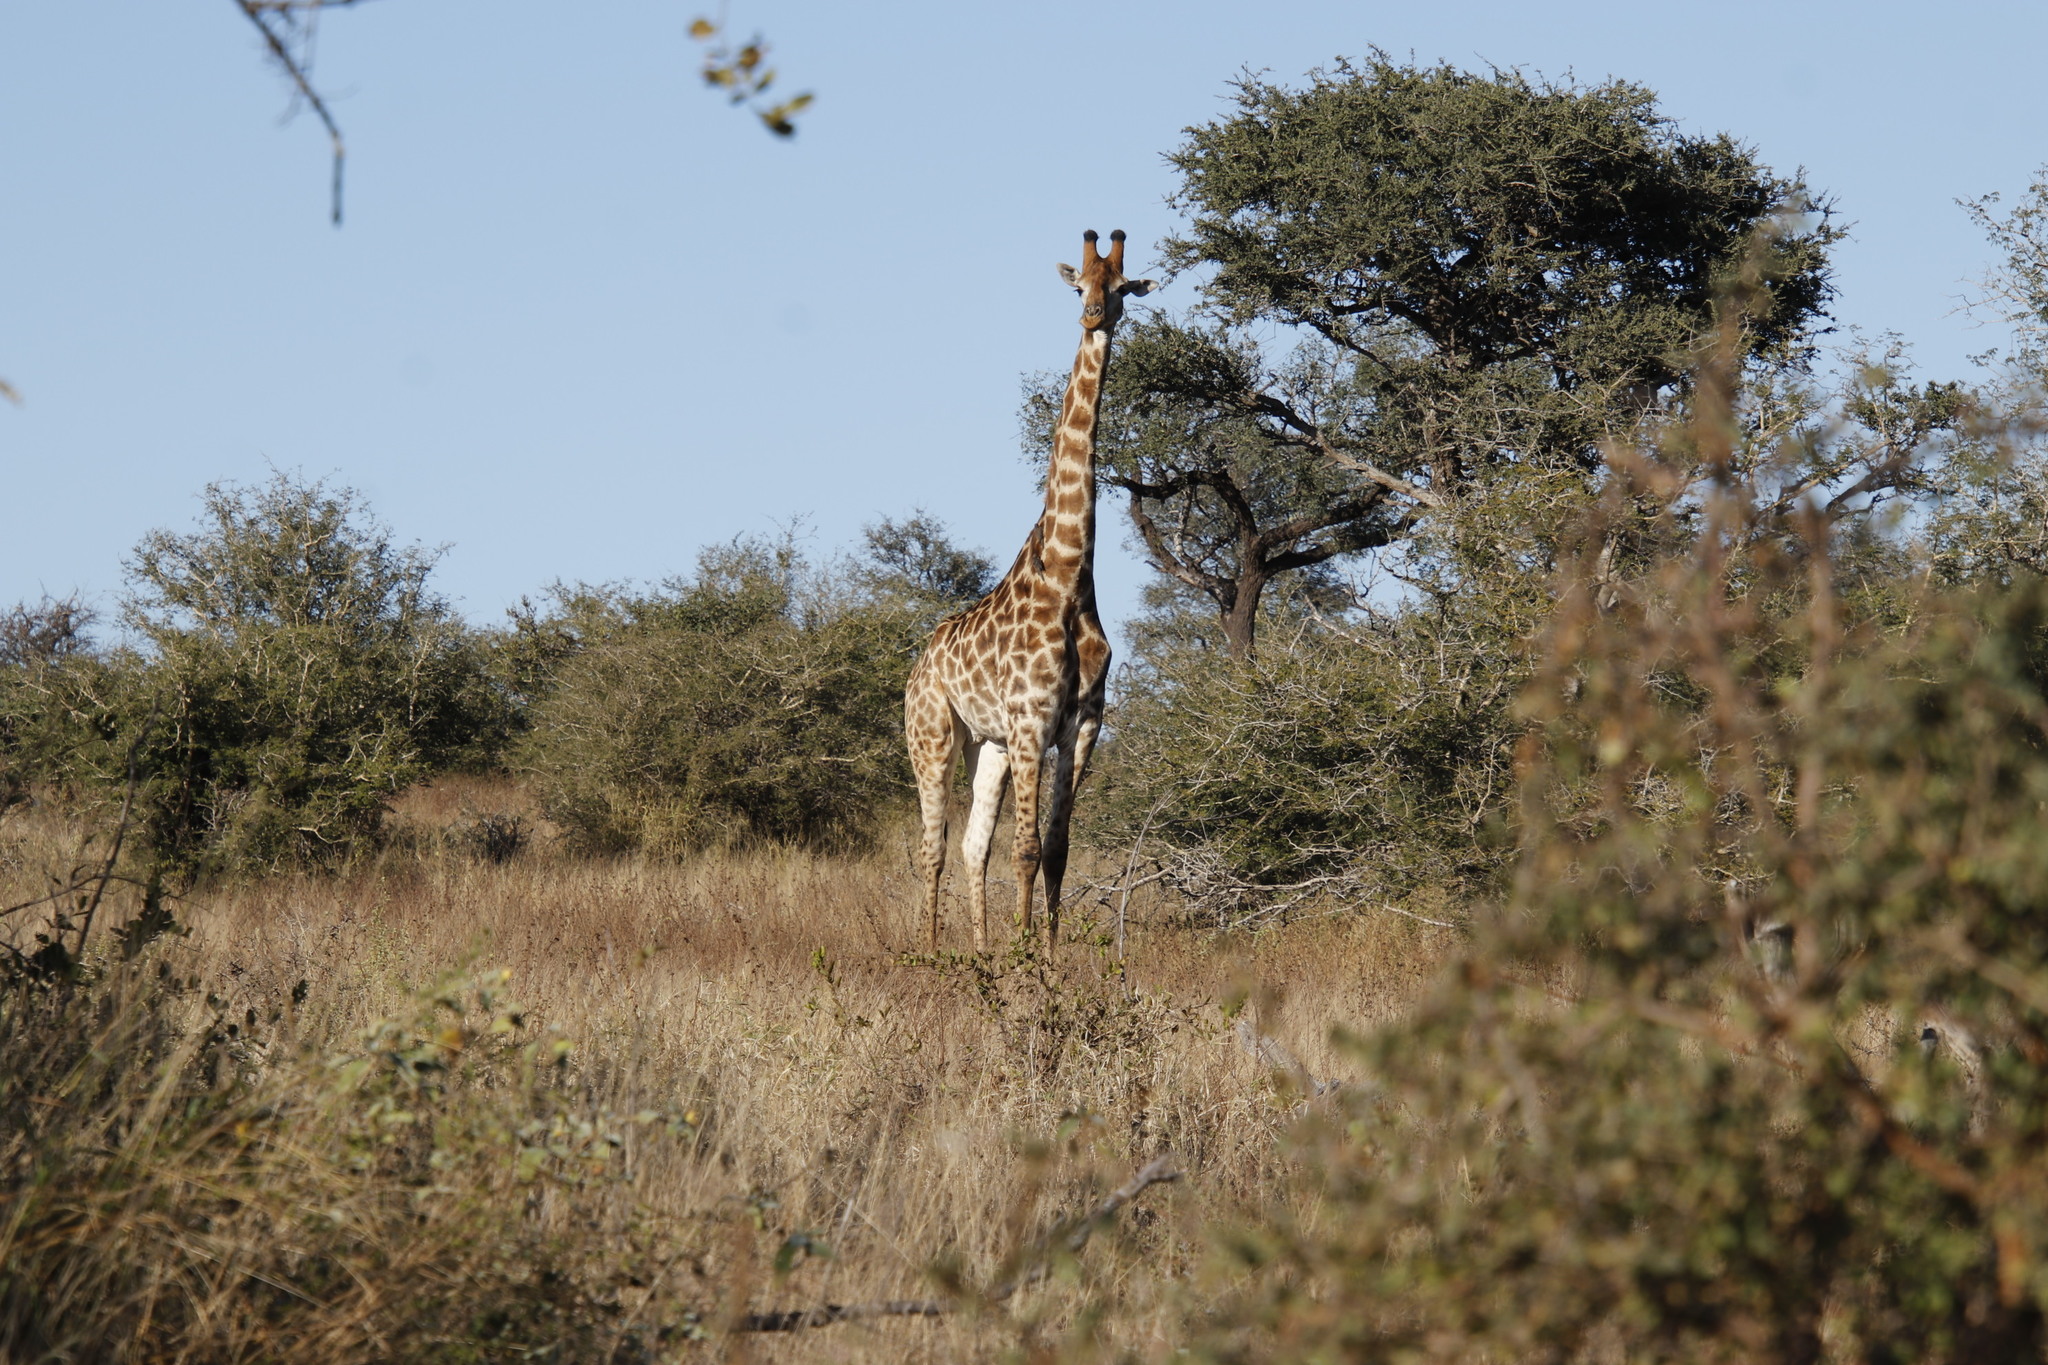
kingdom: Animalia
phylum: Chordata
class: Mammalia
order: Artiodactyla
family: Giraffidae
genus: Giraffa
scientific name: Giraffa giraffa
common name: Southern giraffe
